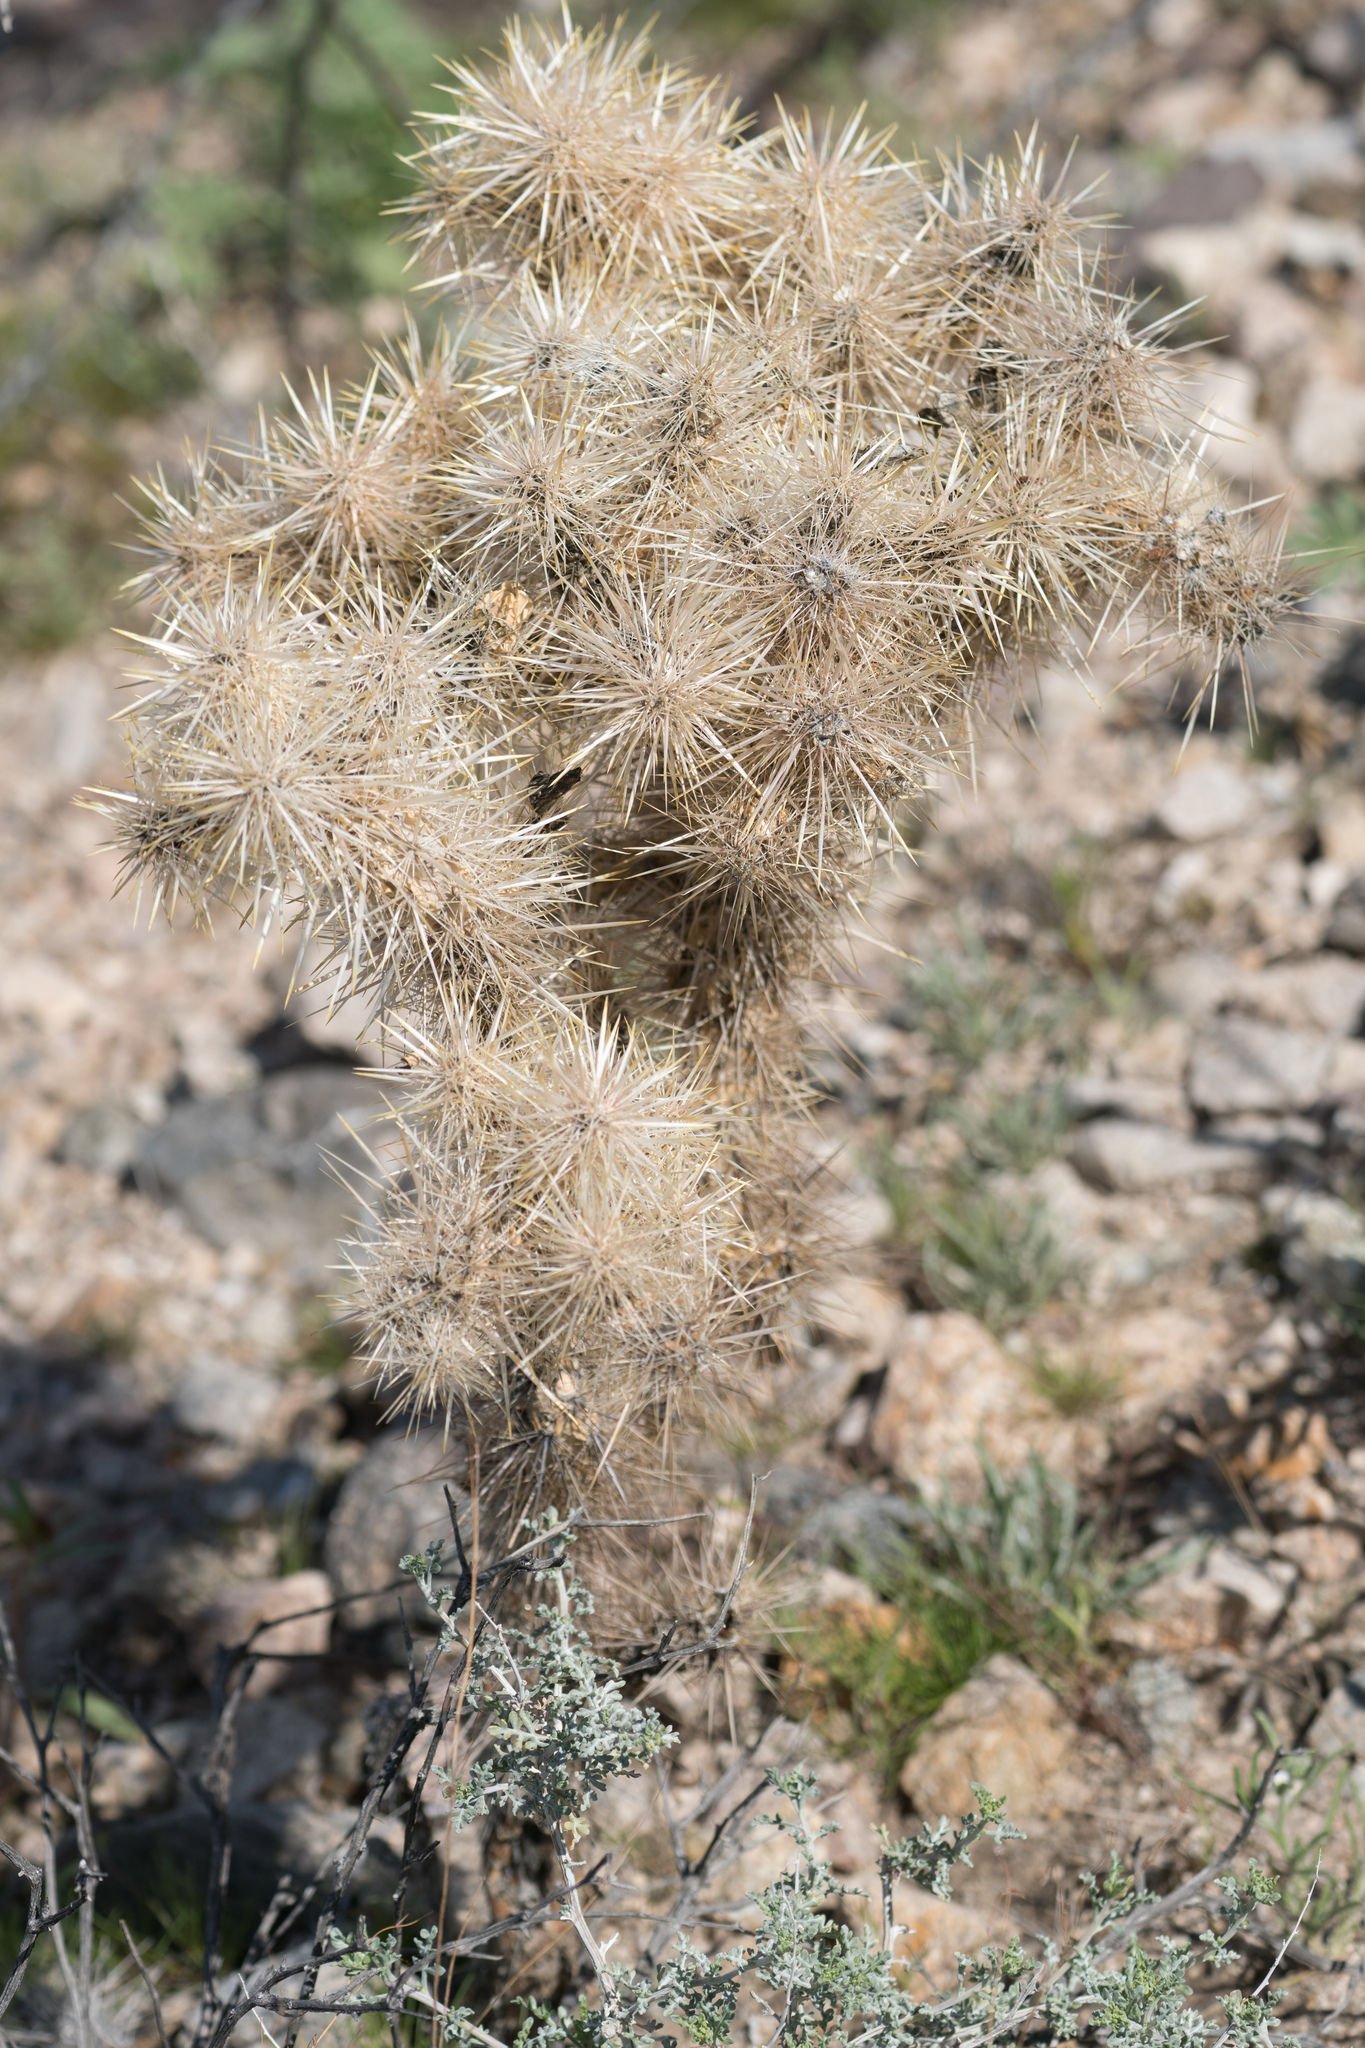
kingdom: Plantae
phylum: Tracheophyta
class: Magnoliopsida
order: Caryophyllales
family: Cactaceae
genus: Cylindropuntia
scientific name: Cylindropuntia echinocarpa
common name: Ground cholla
